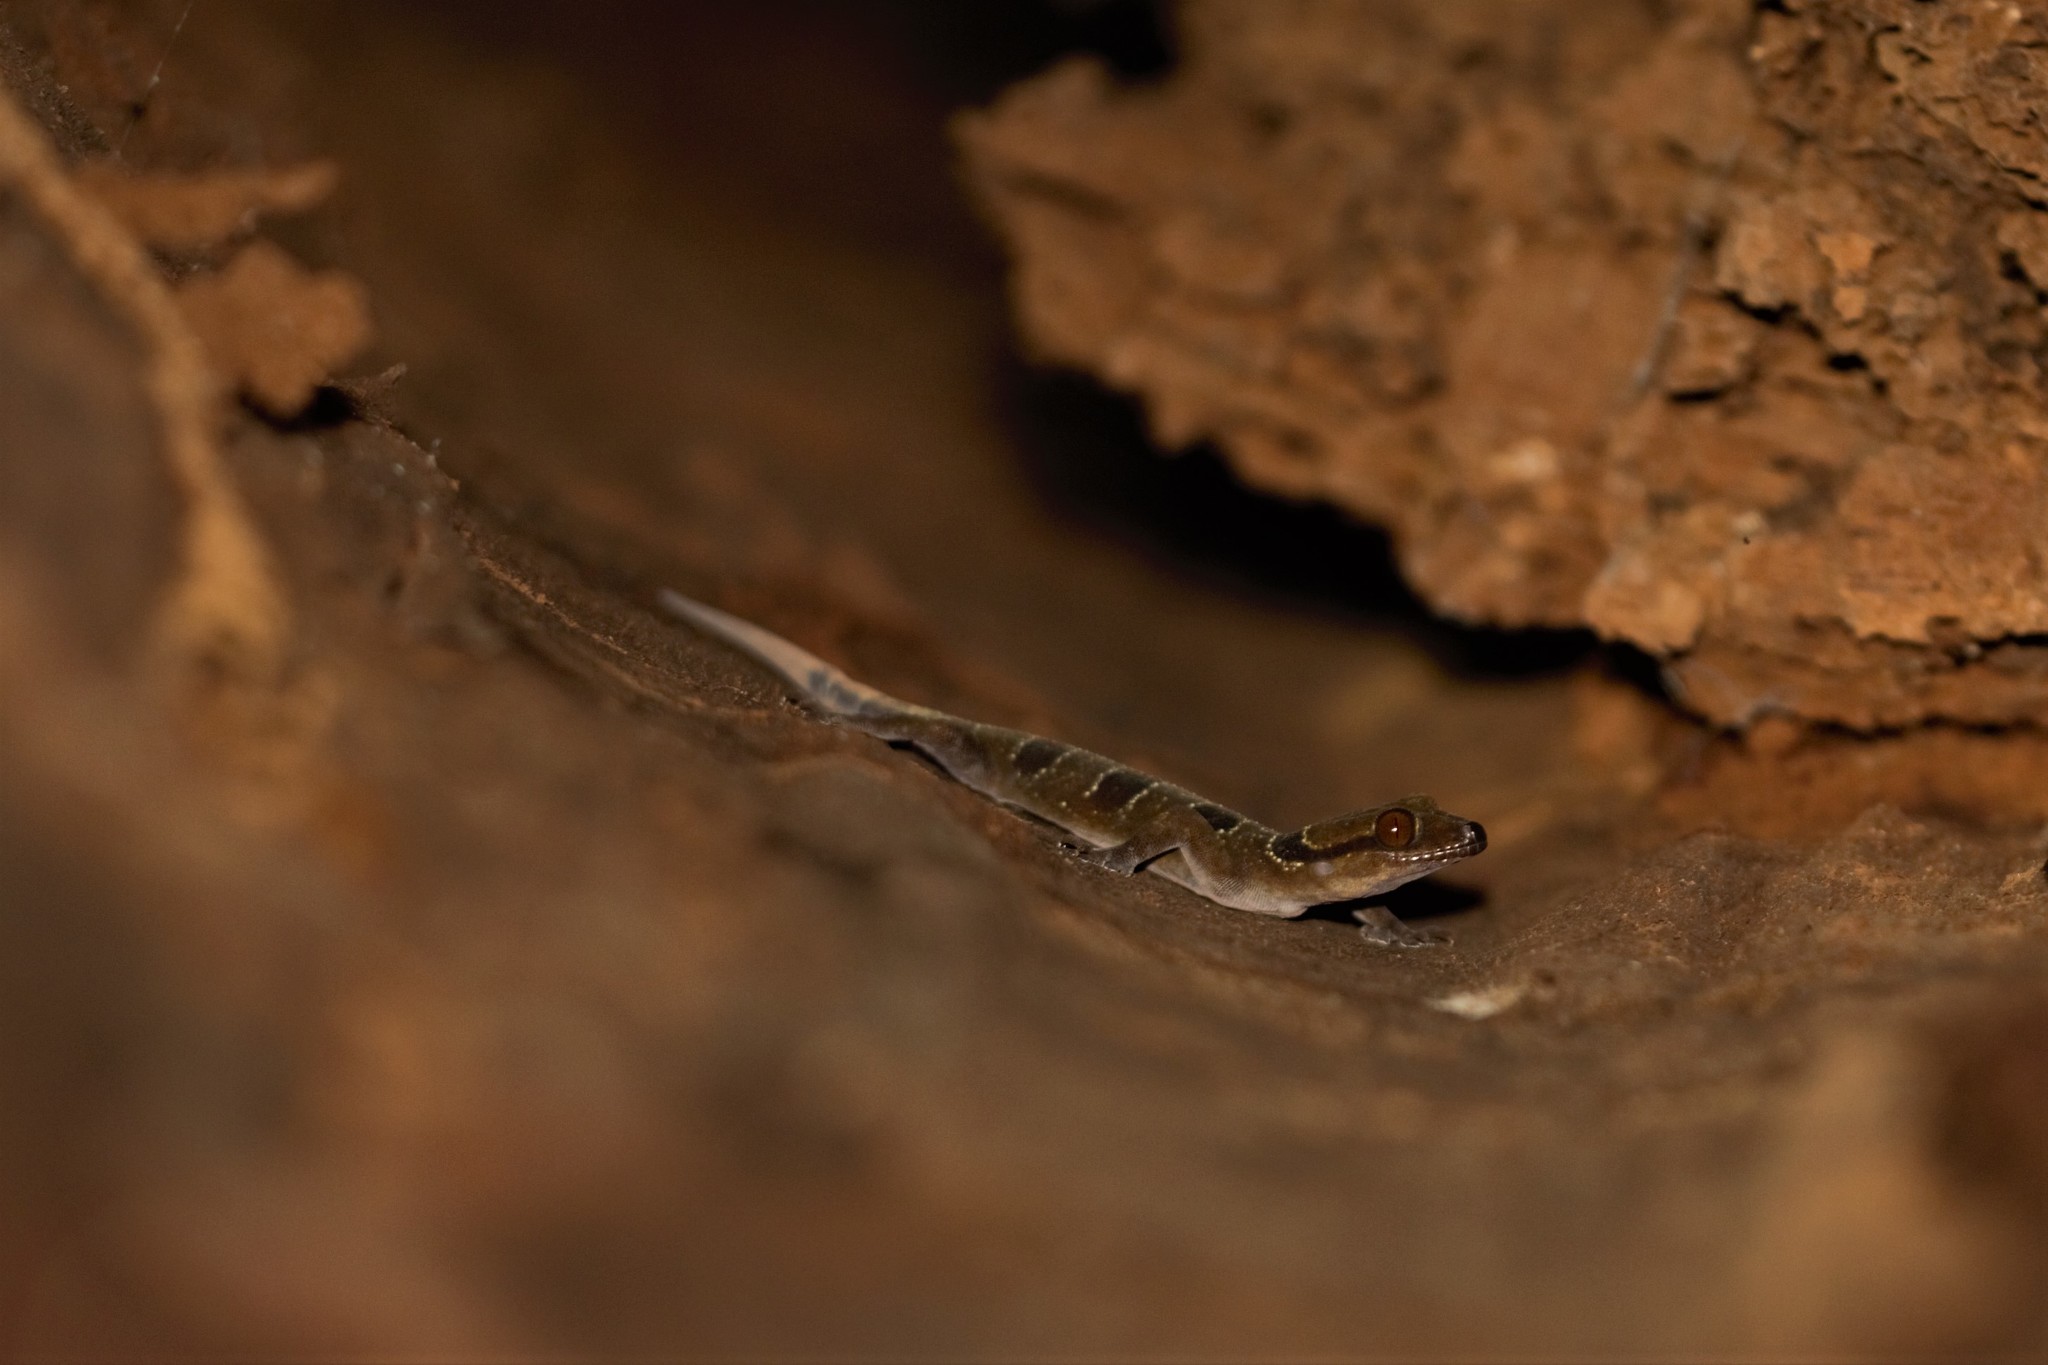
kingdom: Animalia
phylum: Chordata
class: Squamata
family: Gekkonidae
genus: Hemidactylus
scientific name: Hemidactylus coalescens
